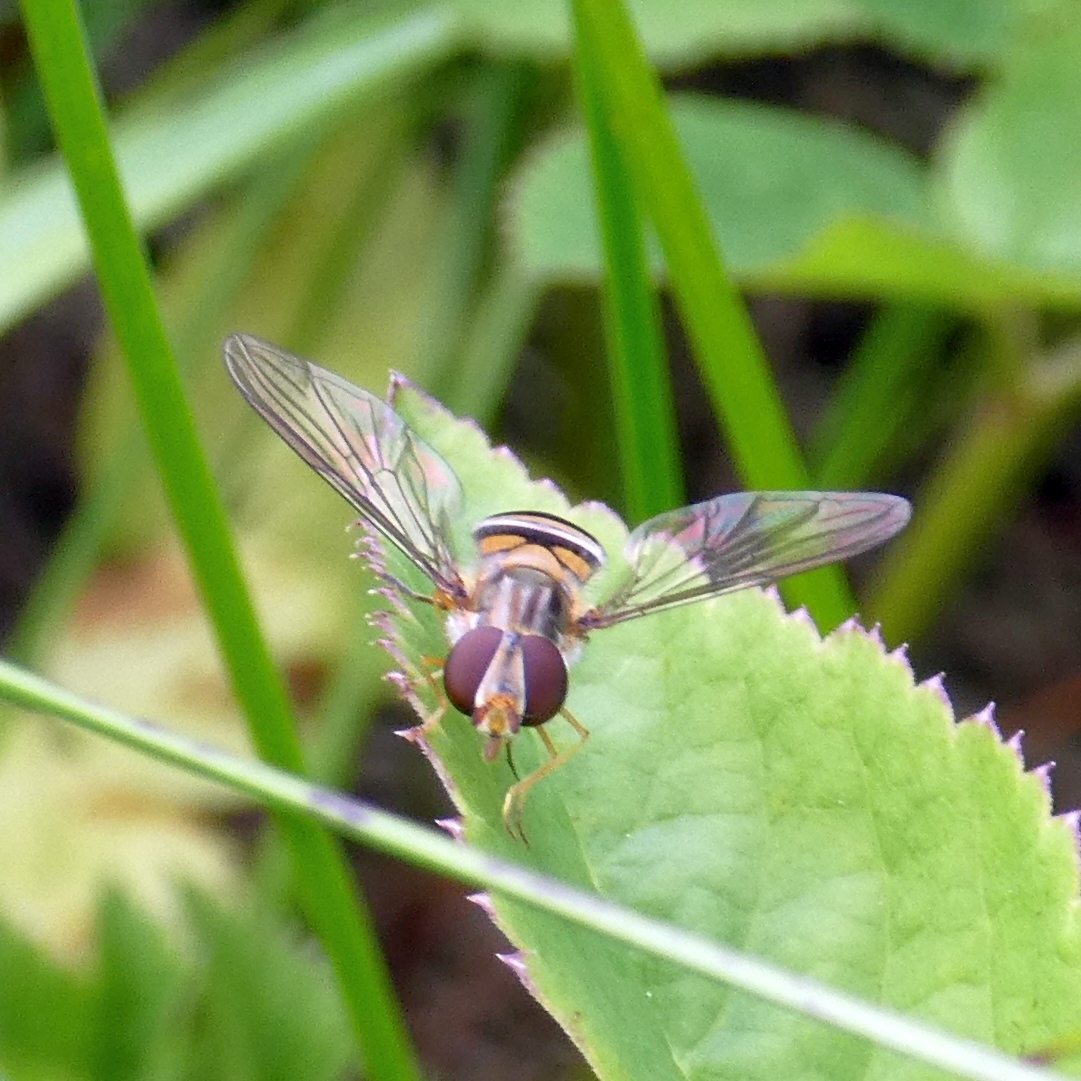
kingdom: Animalia
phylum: Arthropoda
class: Insecta
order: Diptera
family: Syrphidae
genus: Episyrphus
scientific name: Episyrphus balteatus
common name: Marmalade hoverfly
